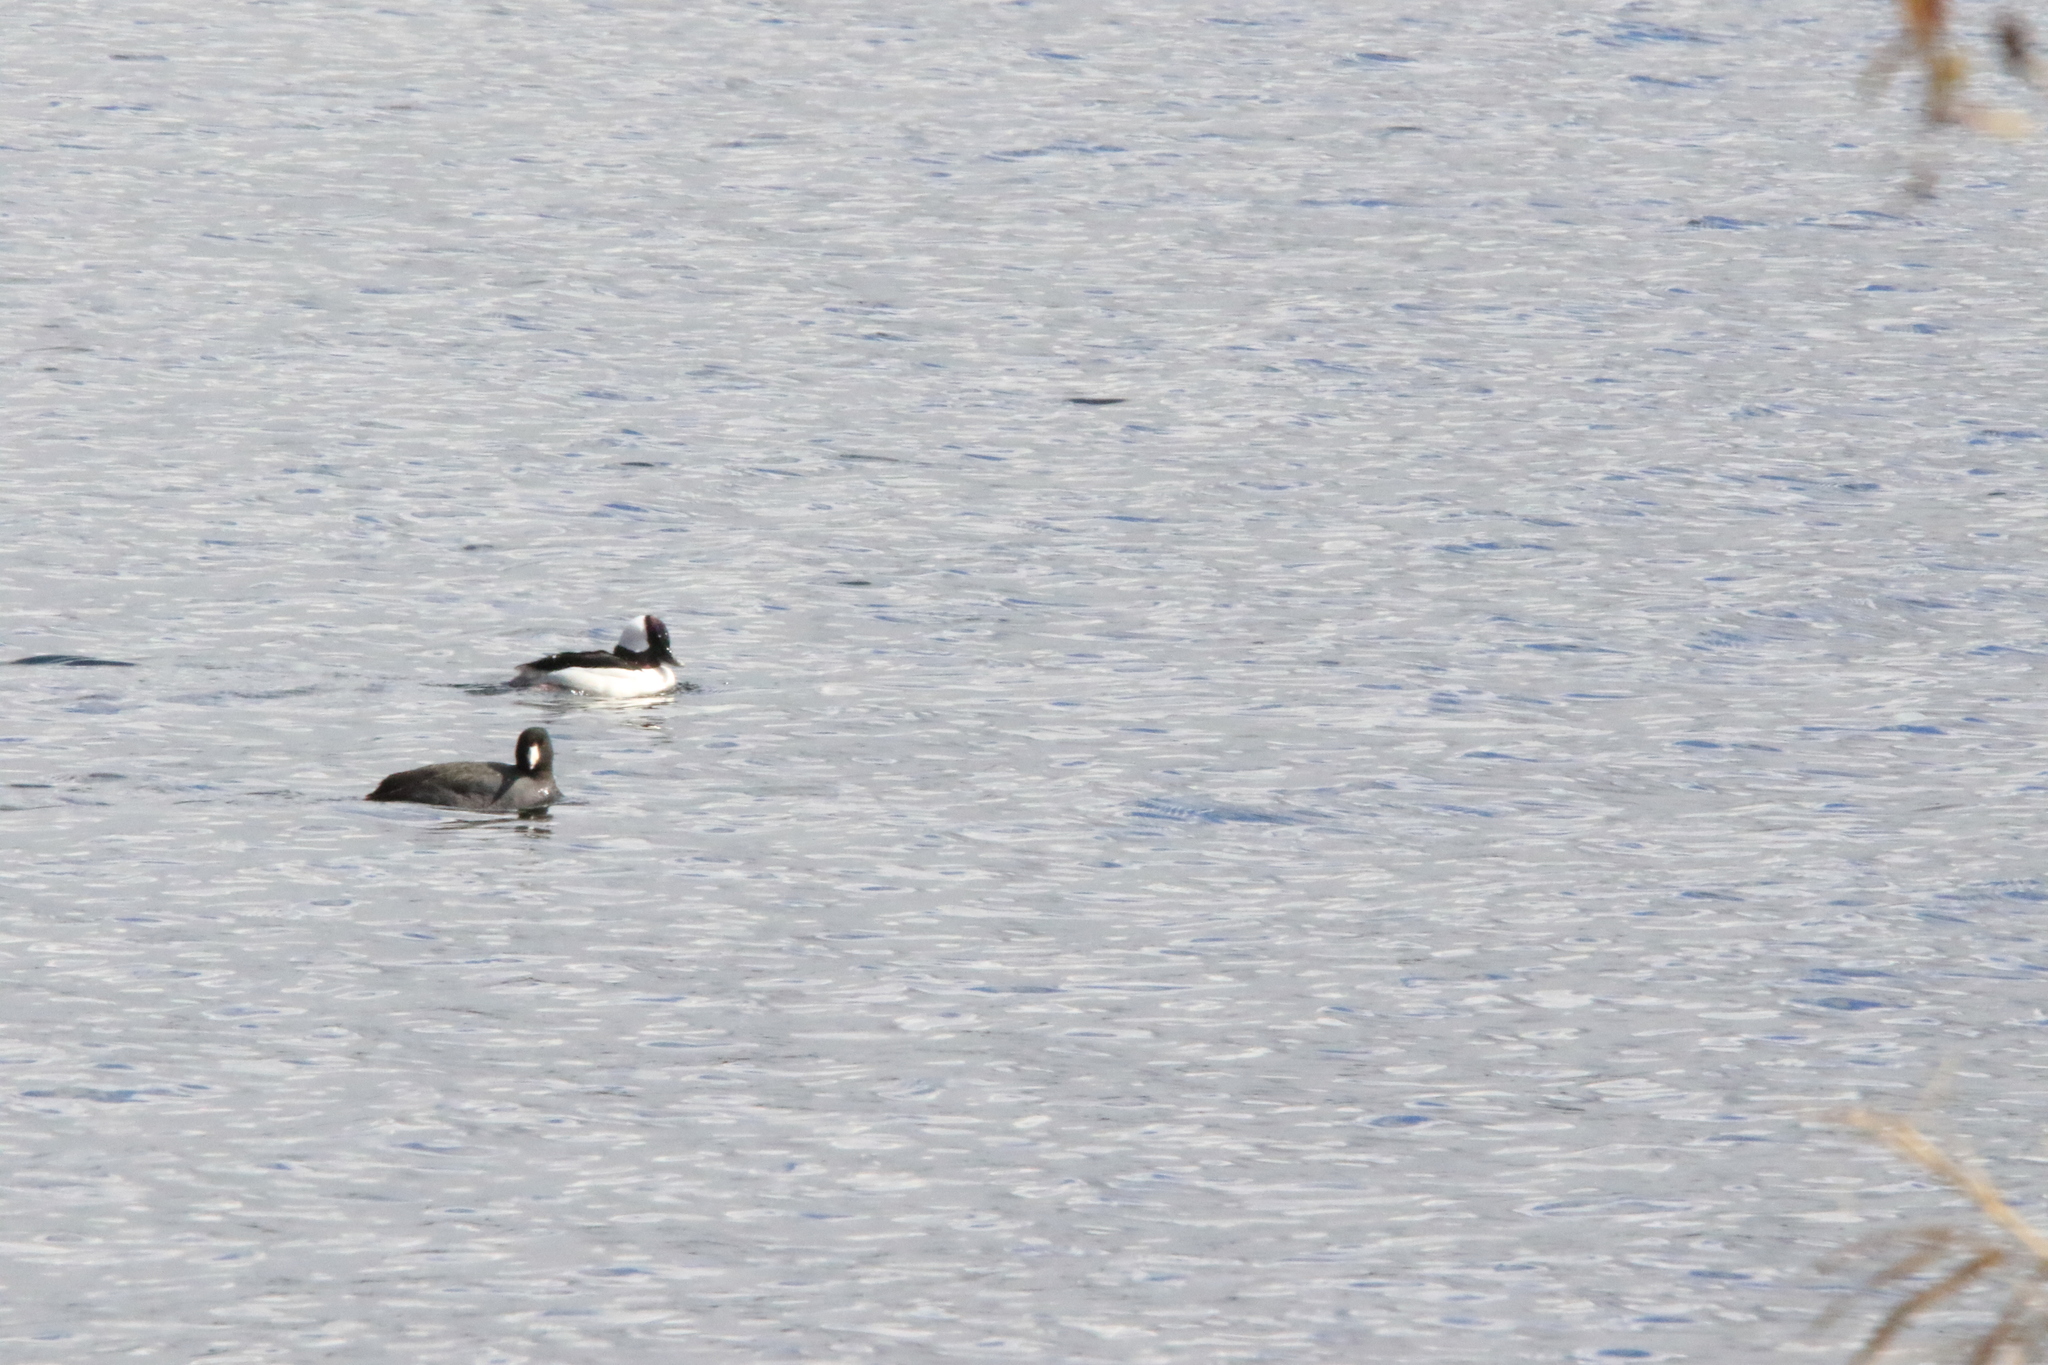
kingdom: Animalia
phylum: Chordata
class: Aves
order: Anseriformes
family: Anatidae
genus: Bucephala
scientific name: Bucephala albeola
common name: Bufflehead
